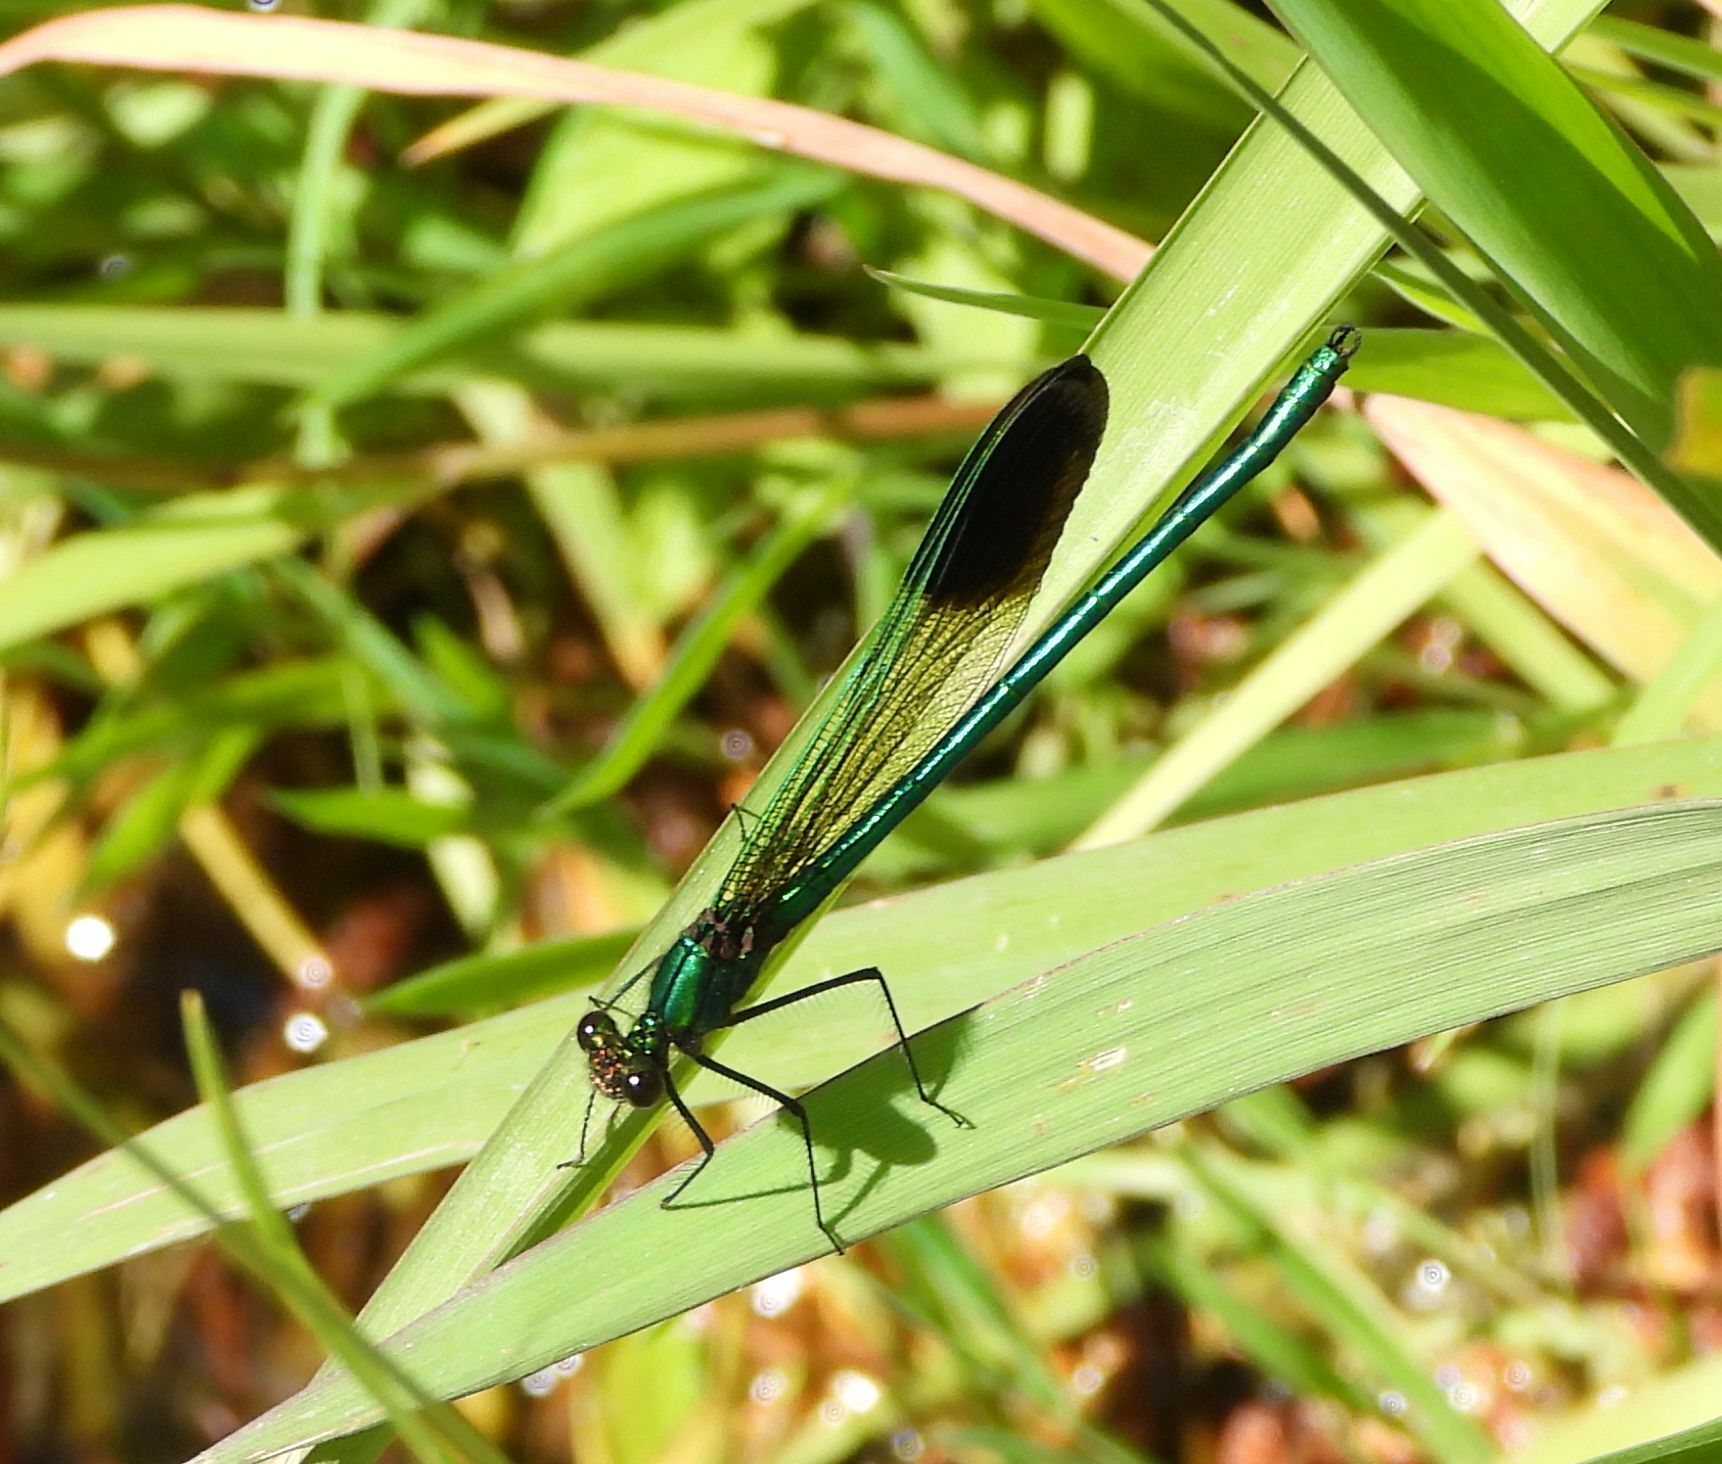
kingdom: Animalia
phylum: Arthropoda
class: Insecta
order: Odonata
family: Calopterygidae
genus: Calopteryx
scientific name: Calopteryx aequabilis
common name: River jewelwing
